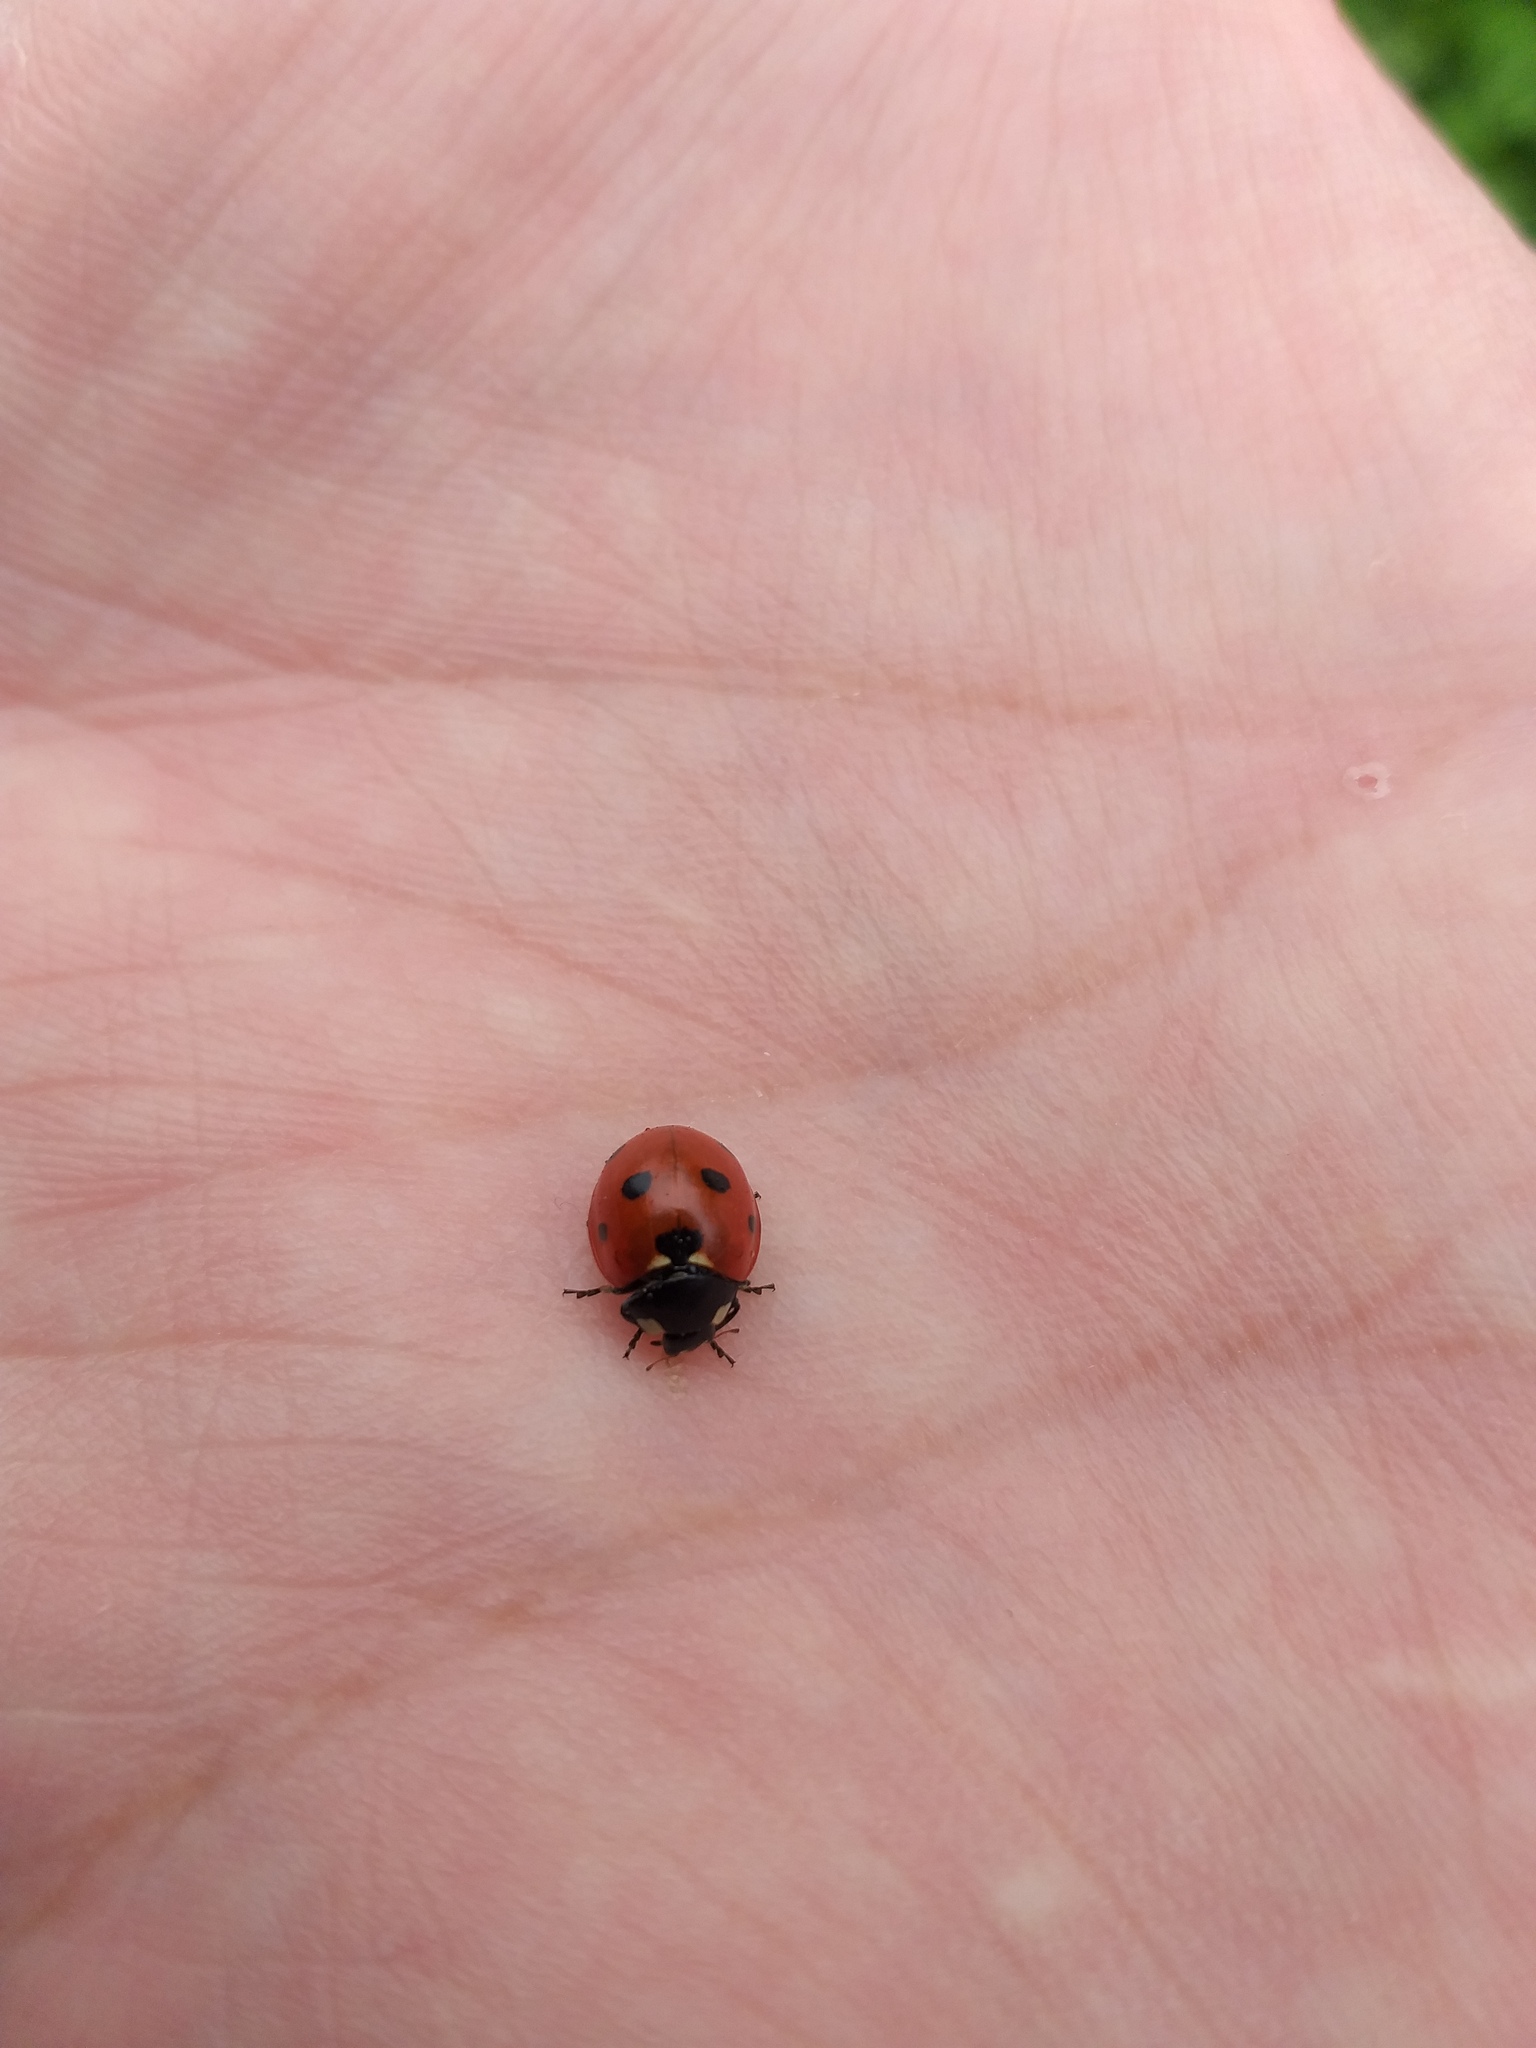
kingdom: Animalia
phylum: Arthropoda
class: Insecta
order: Coleoptera
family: Coccinellidae
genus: Coccinella
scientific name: Coccinella septempunctata
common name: Sevenspotted lady beetle
